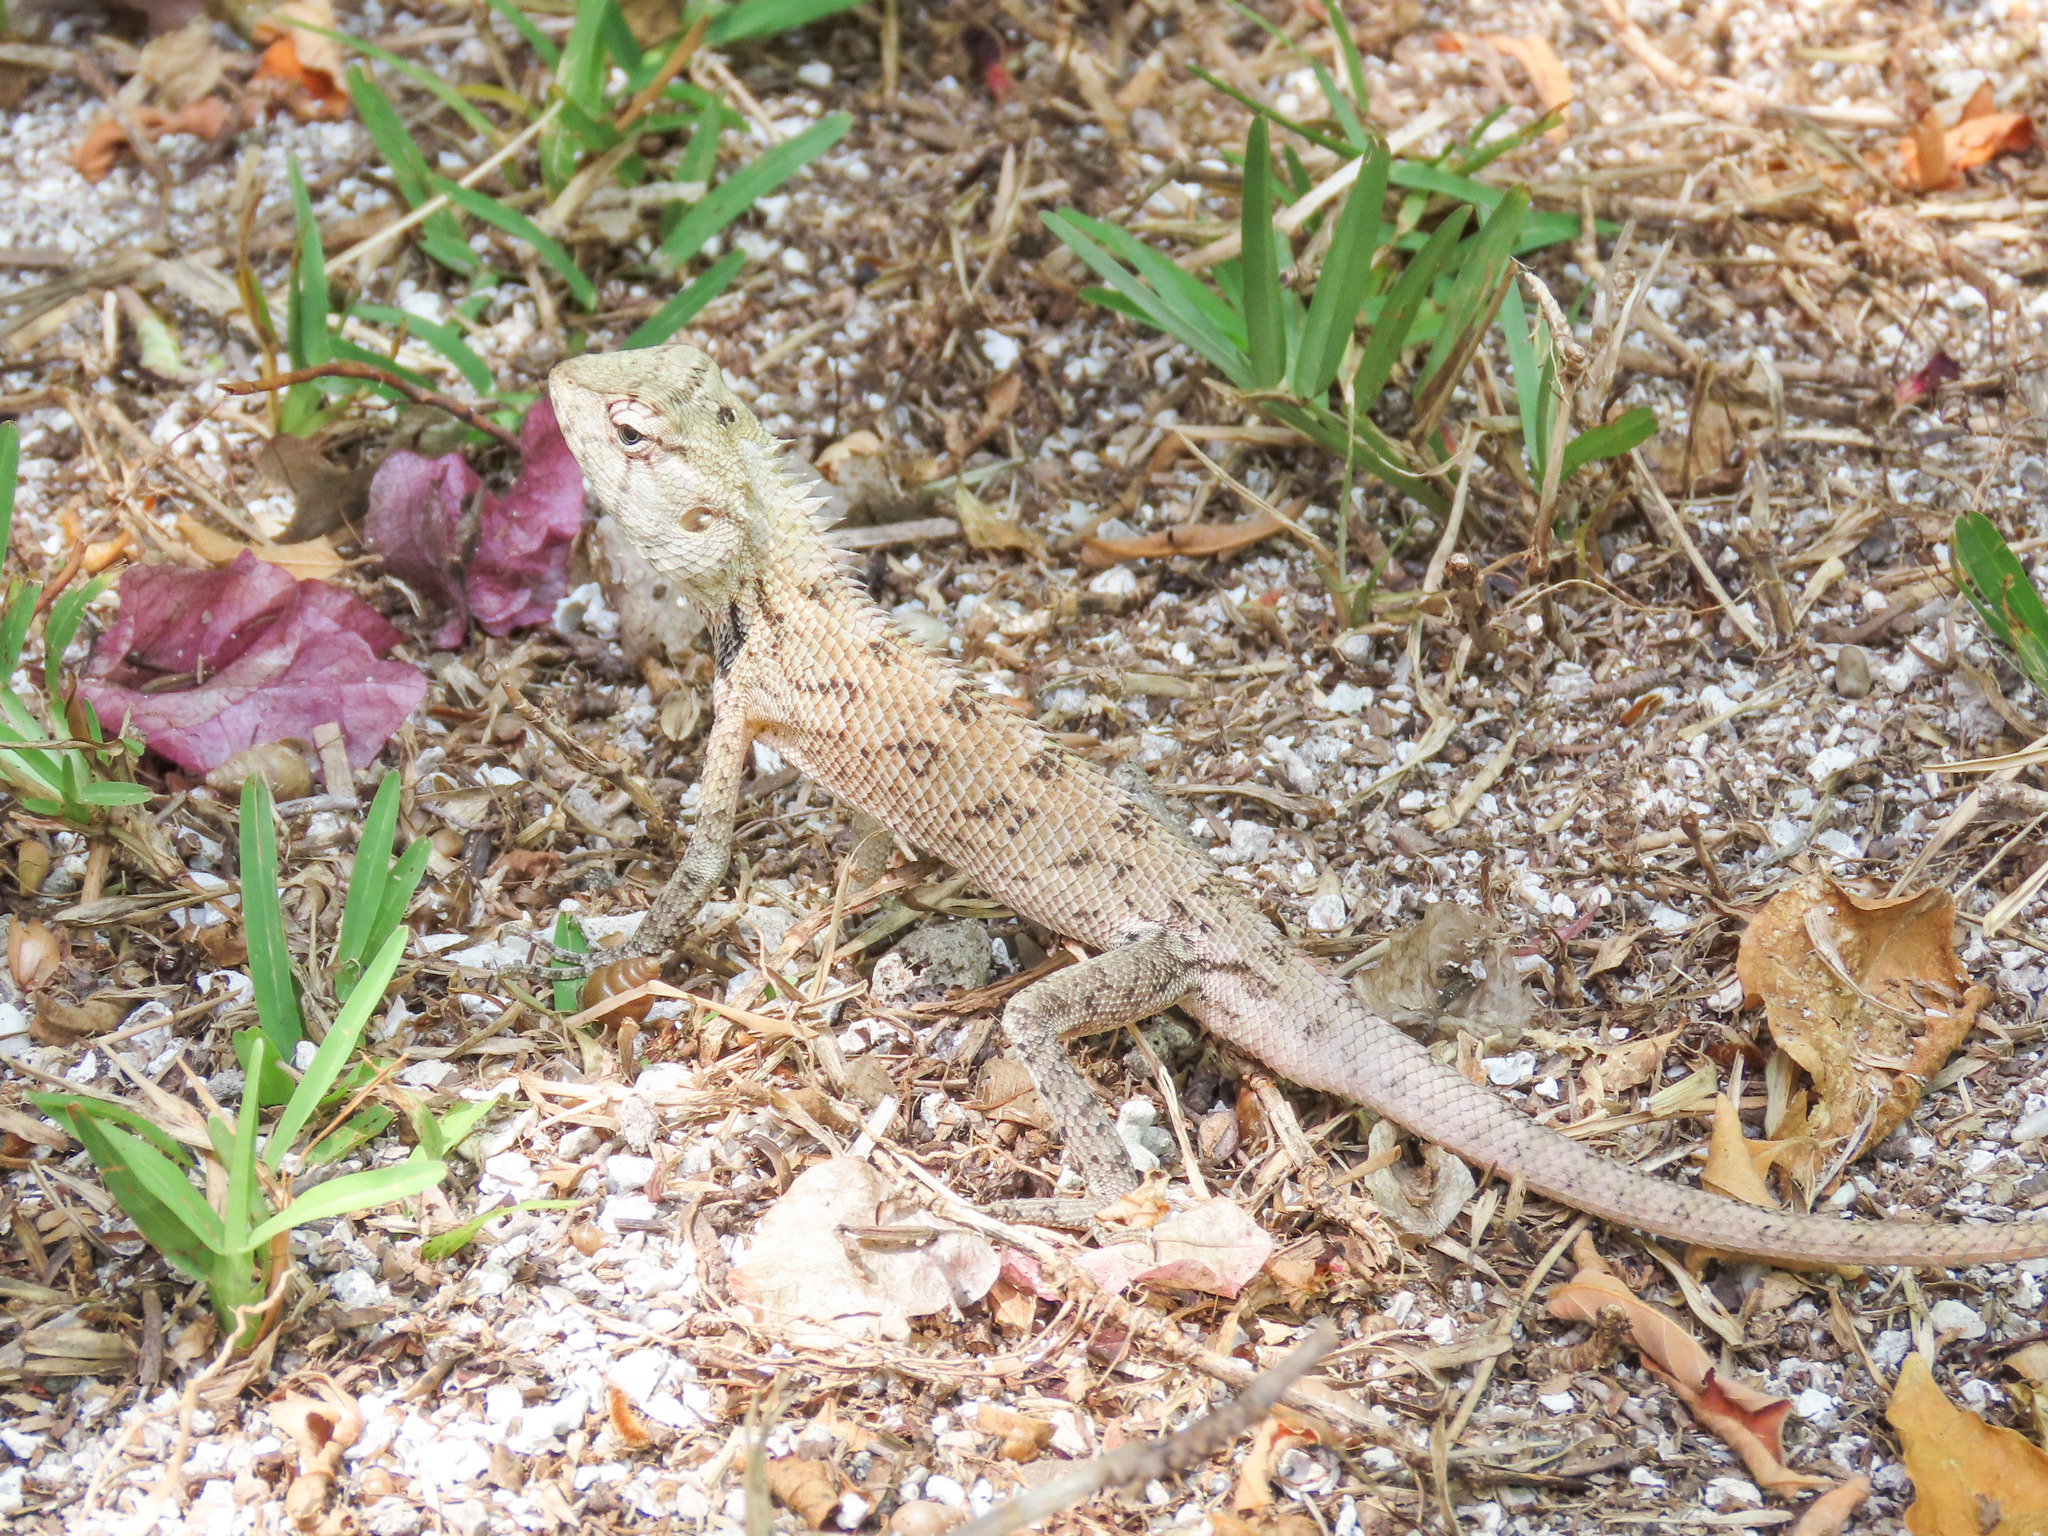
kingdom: Animalia
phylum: Chordata
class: Squamata
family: Agamidae
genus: Calotes
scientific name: Calotes versicolor
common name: Oriental garden lizard
